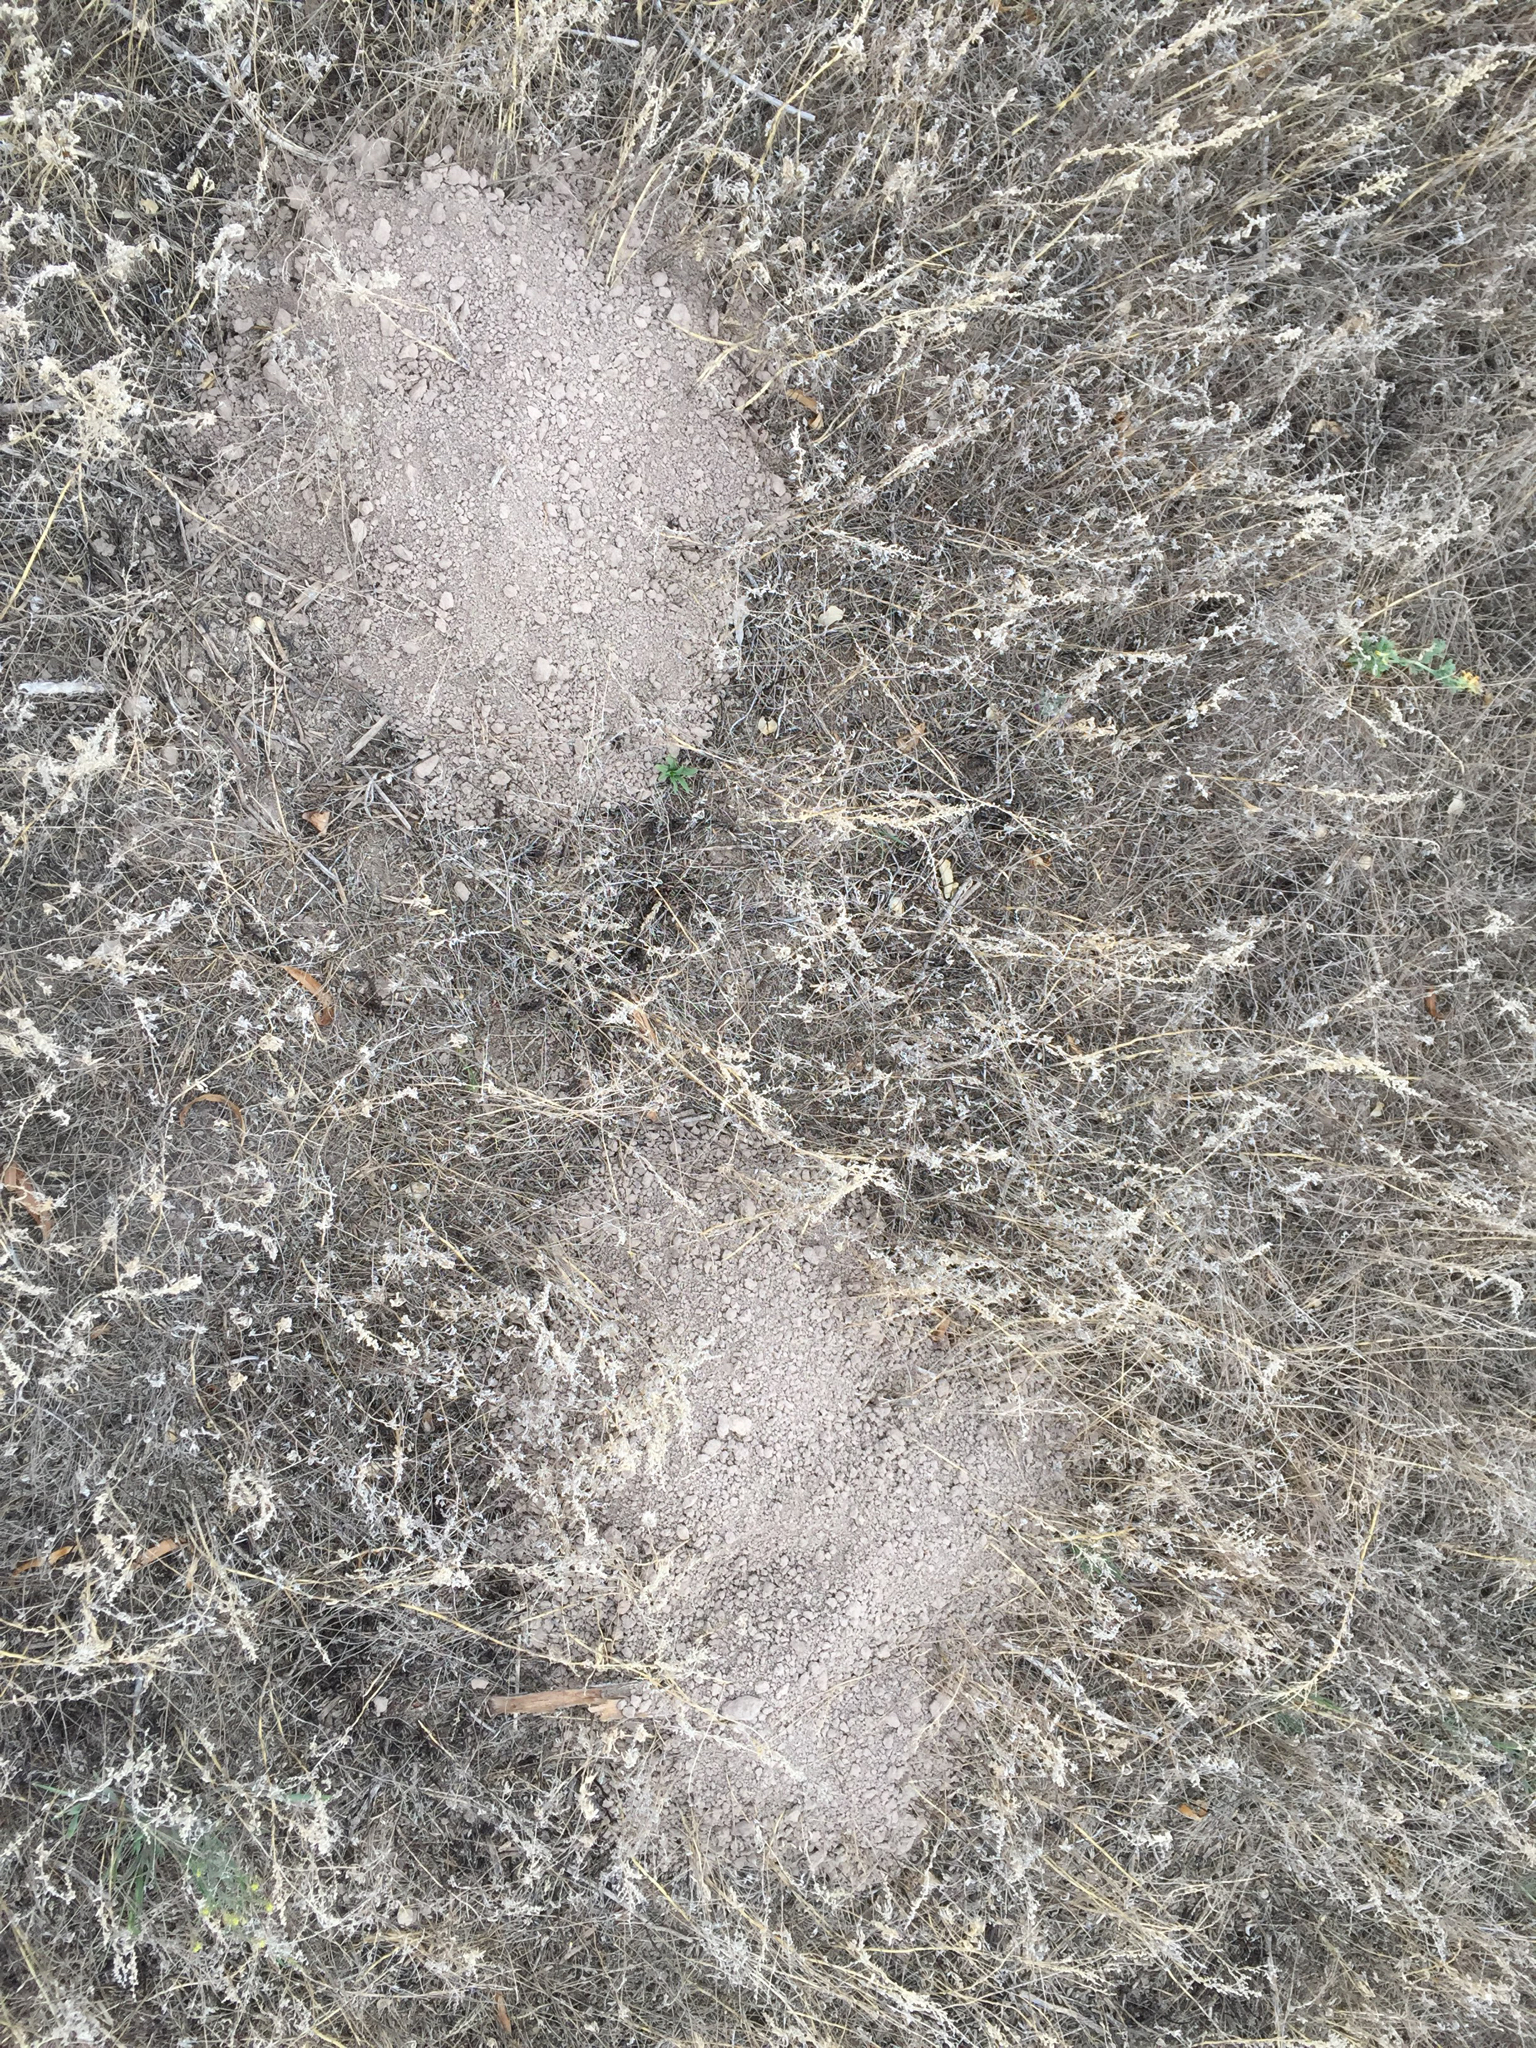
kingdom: Animalia
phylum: Chordata
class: Mammalia
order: Rodentia
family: Geomyidae
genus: Cratogeomys
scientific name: Cratogeomys castanops
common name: Yellow-faced pocket gopher
